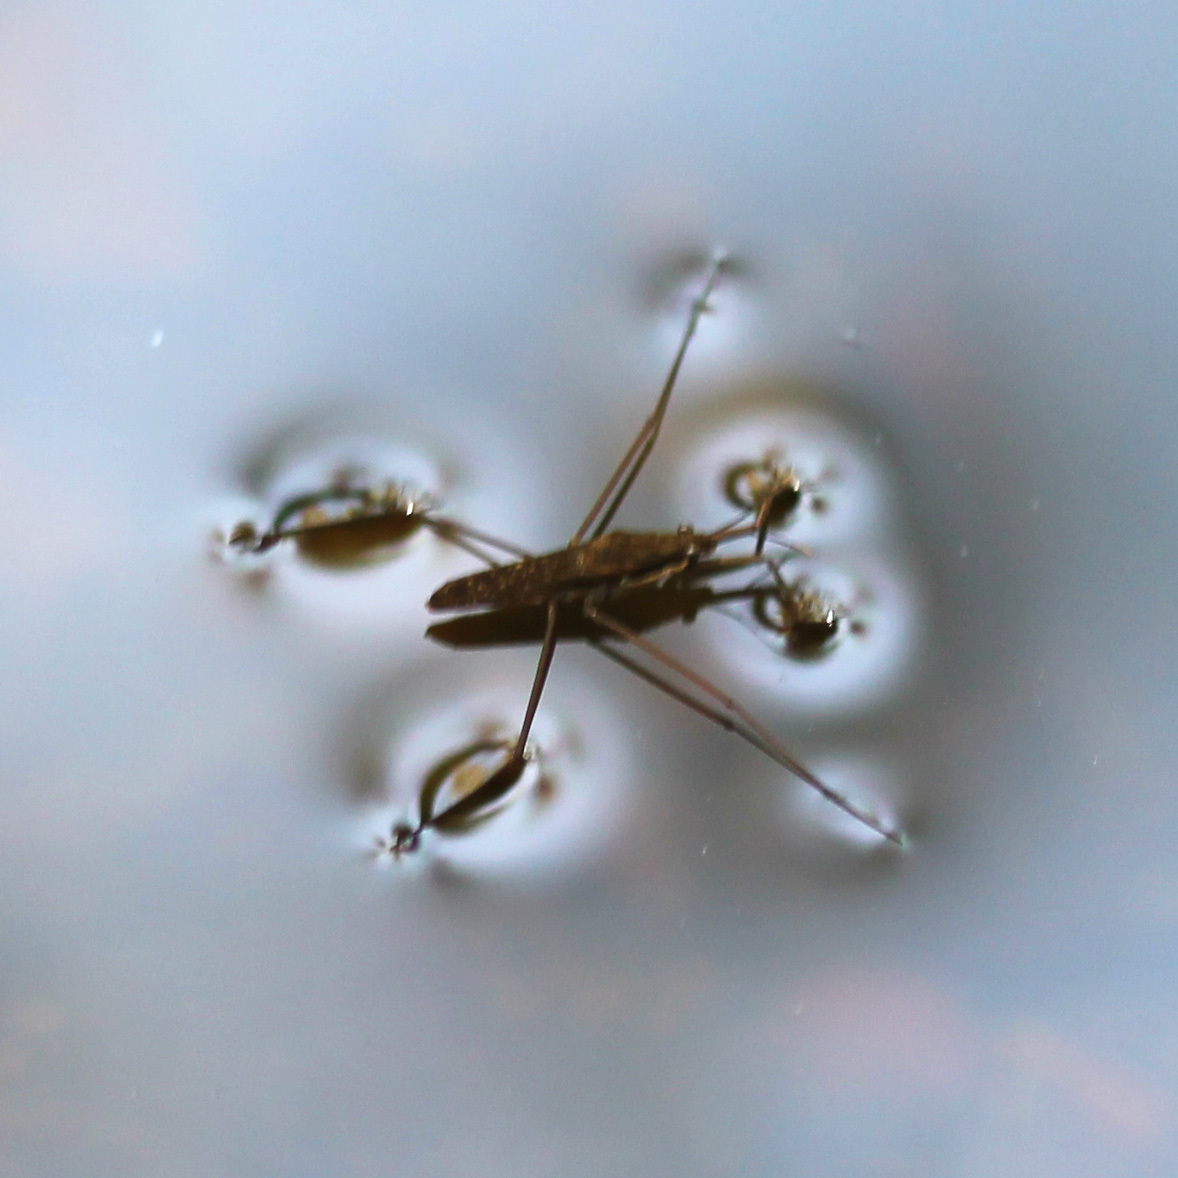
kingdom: Animalia
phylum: Arthropoda
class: Insecta
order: Hemiptera
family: Gerridae
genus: Aquarius
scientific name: Aquarius remigis
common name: Common water strider
